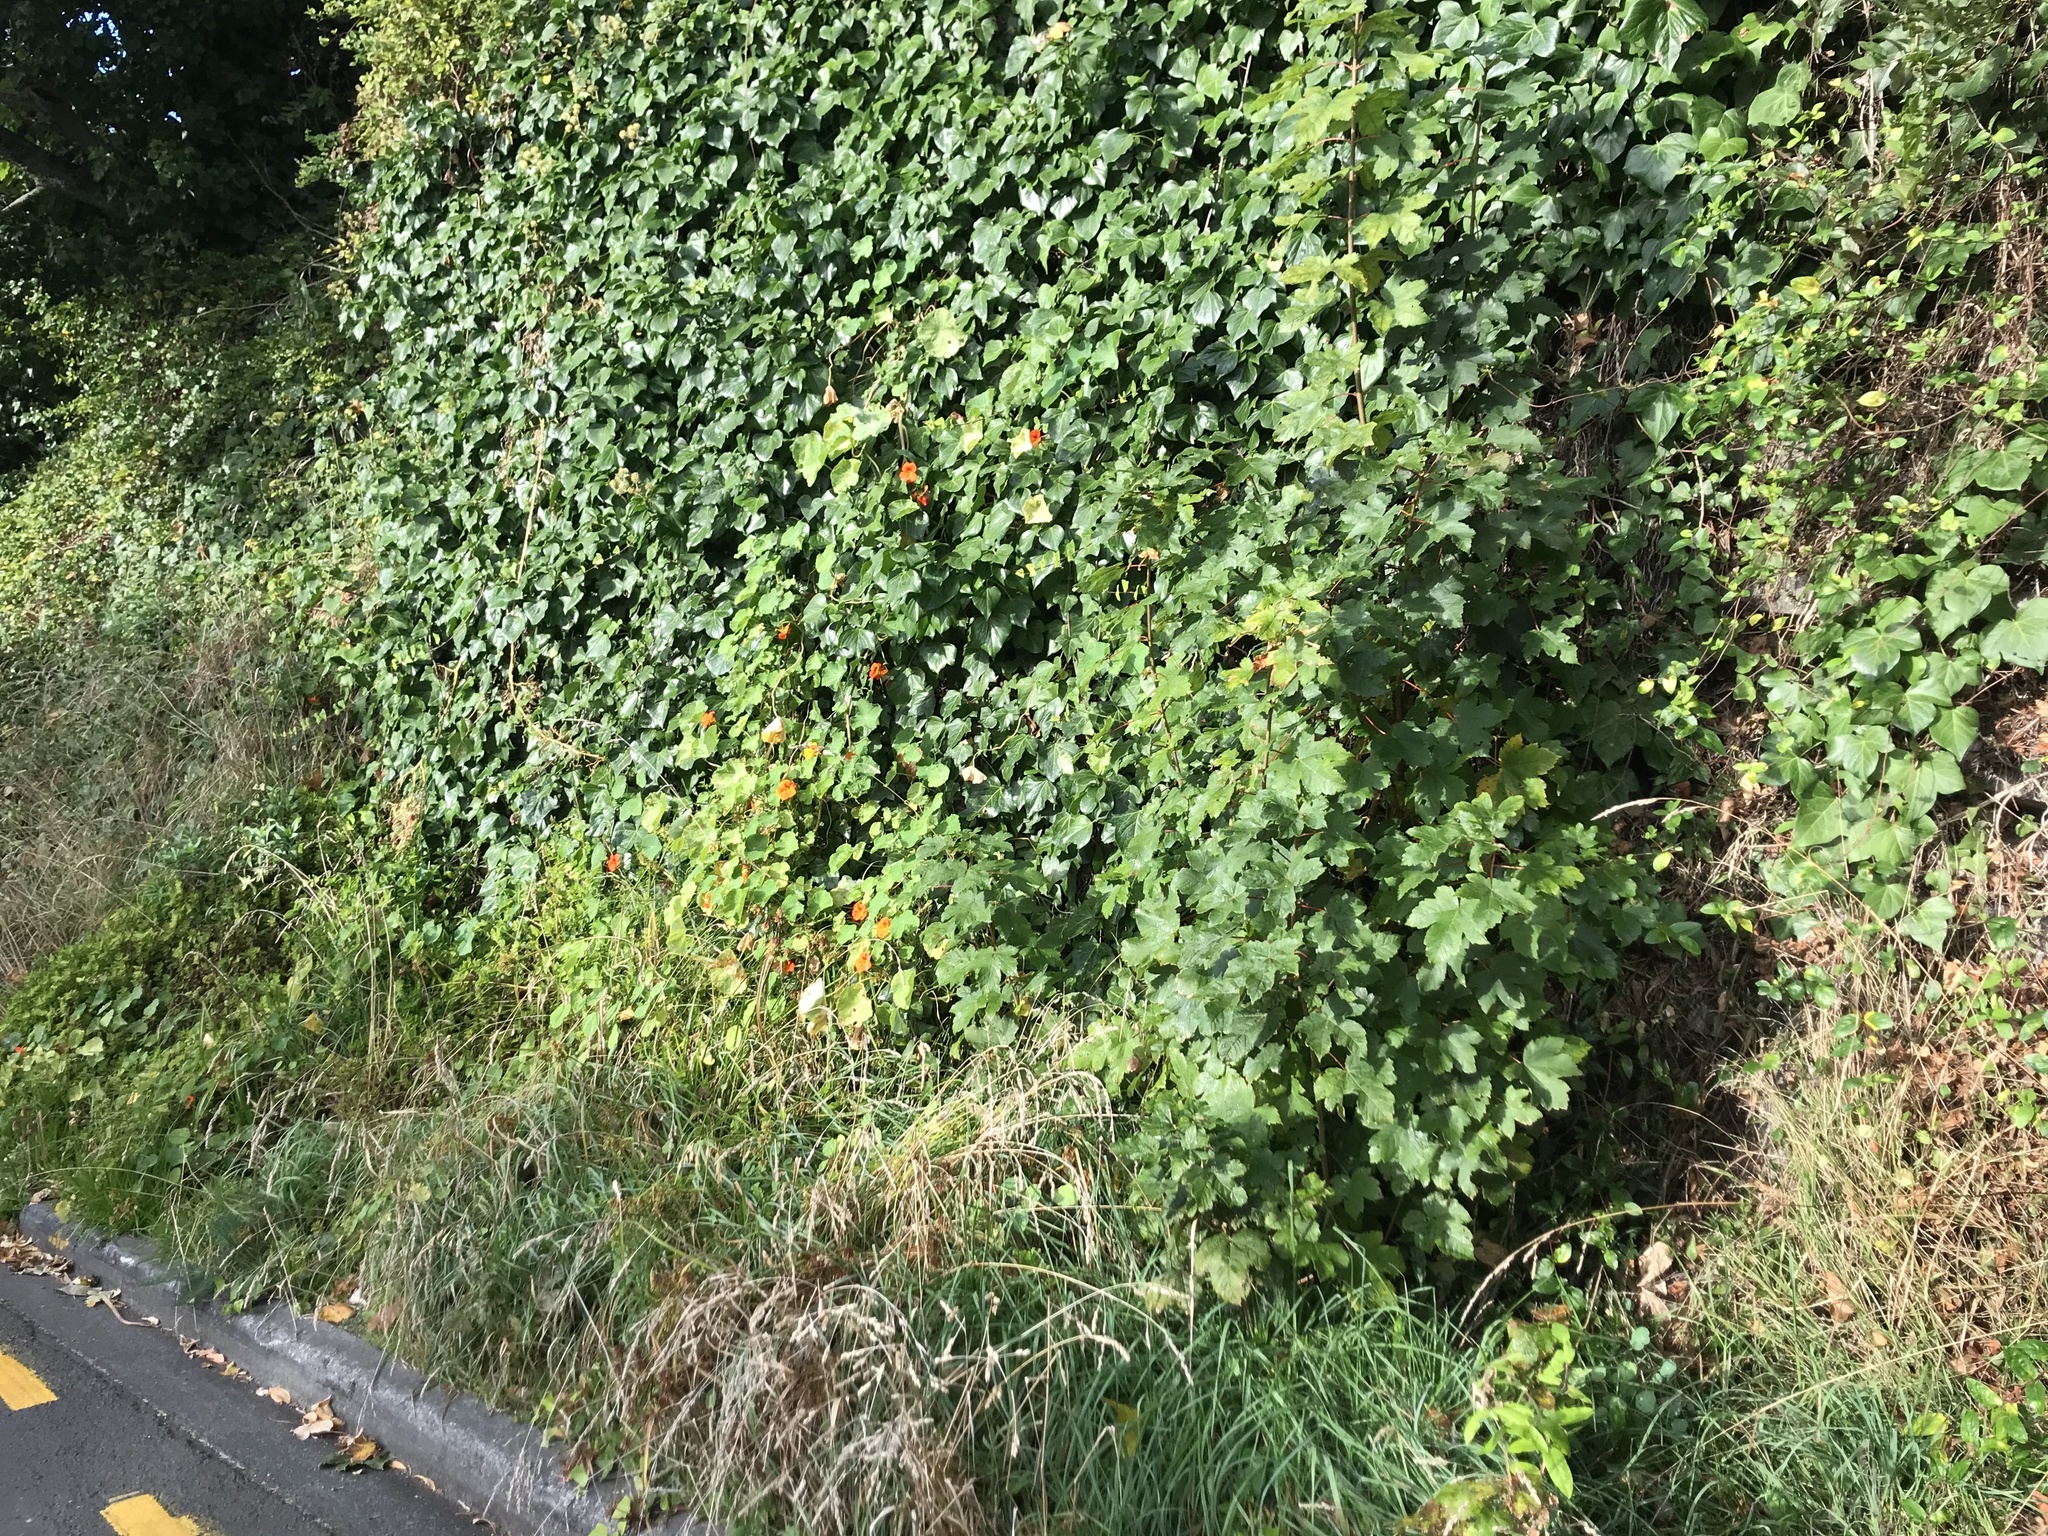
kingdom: Plantae
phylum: Tracheophyta
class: Magnoliopsida
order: Brassicales
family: Tropaeolaceae
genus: Tropaeolum
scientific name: Tropaeolum majus
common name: Nasturtium
